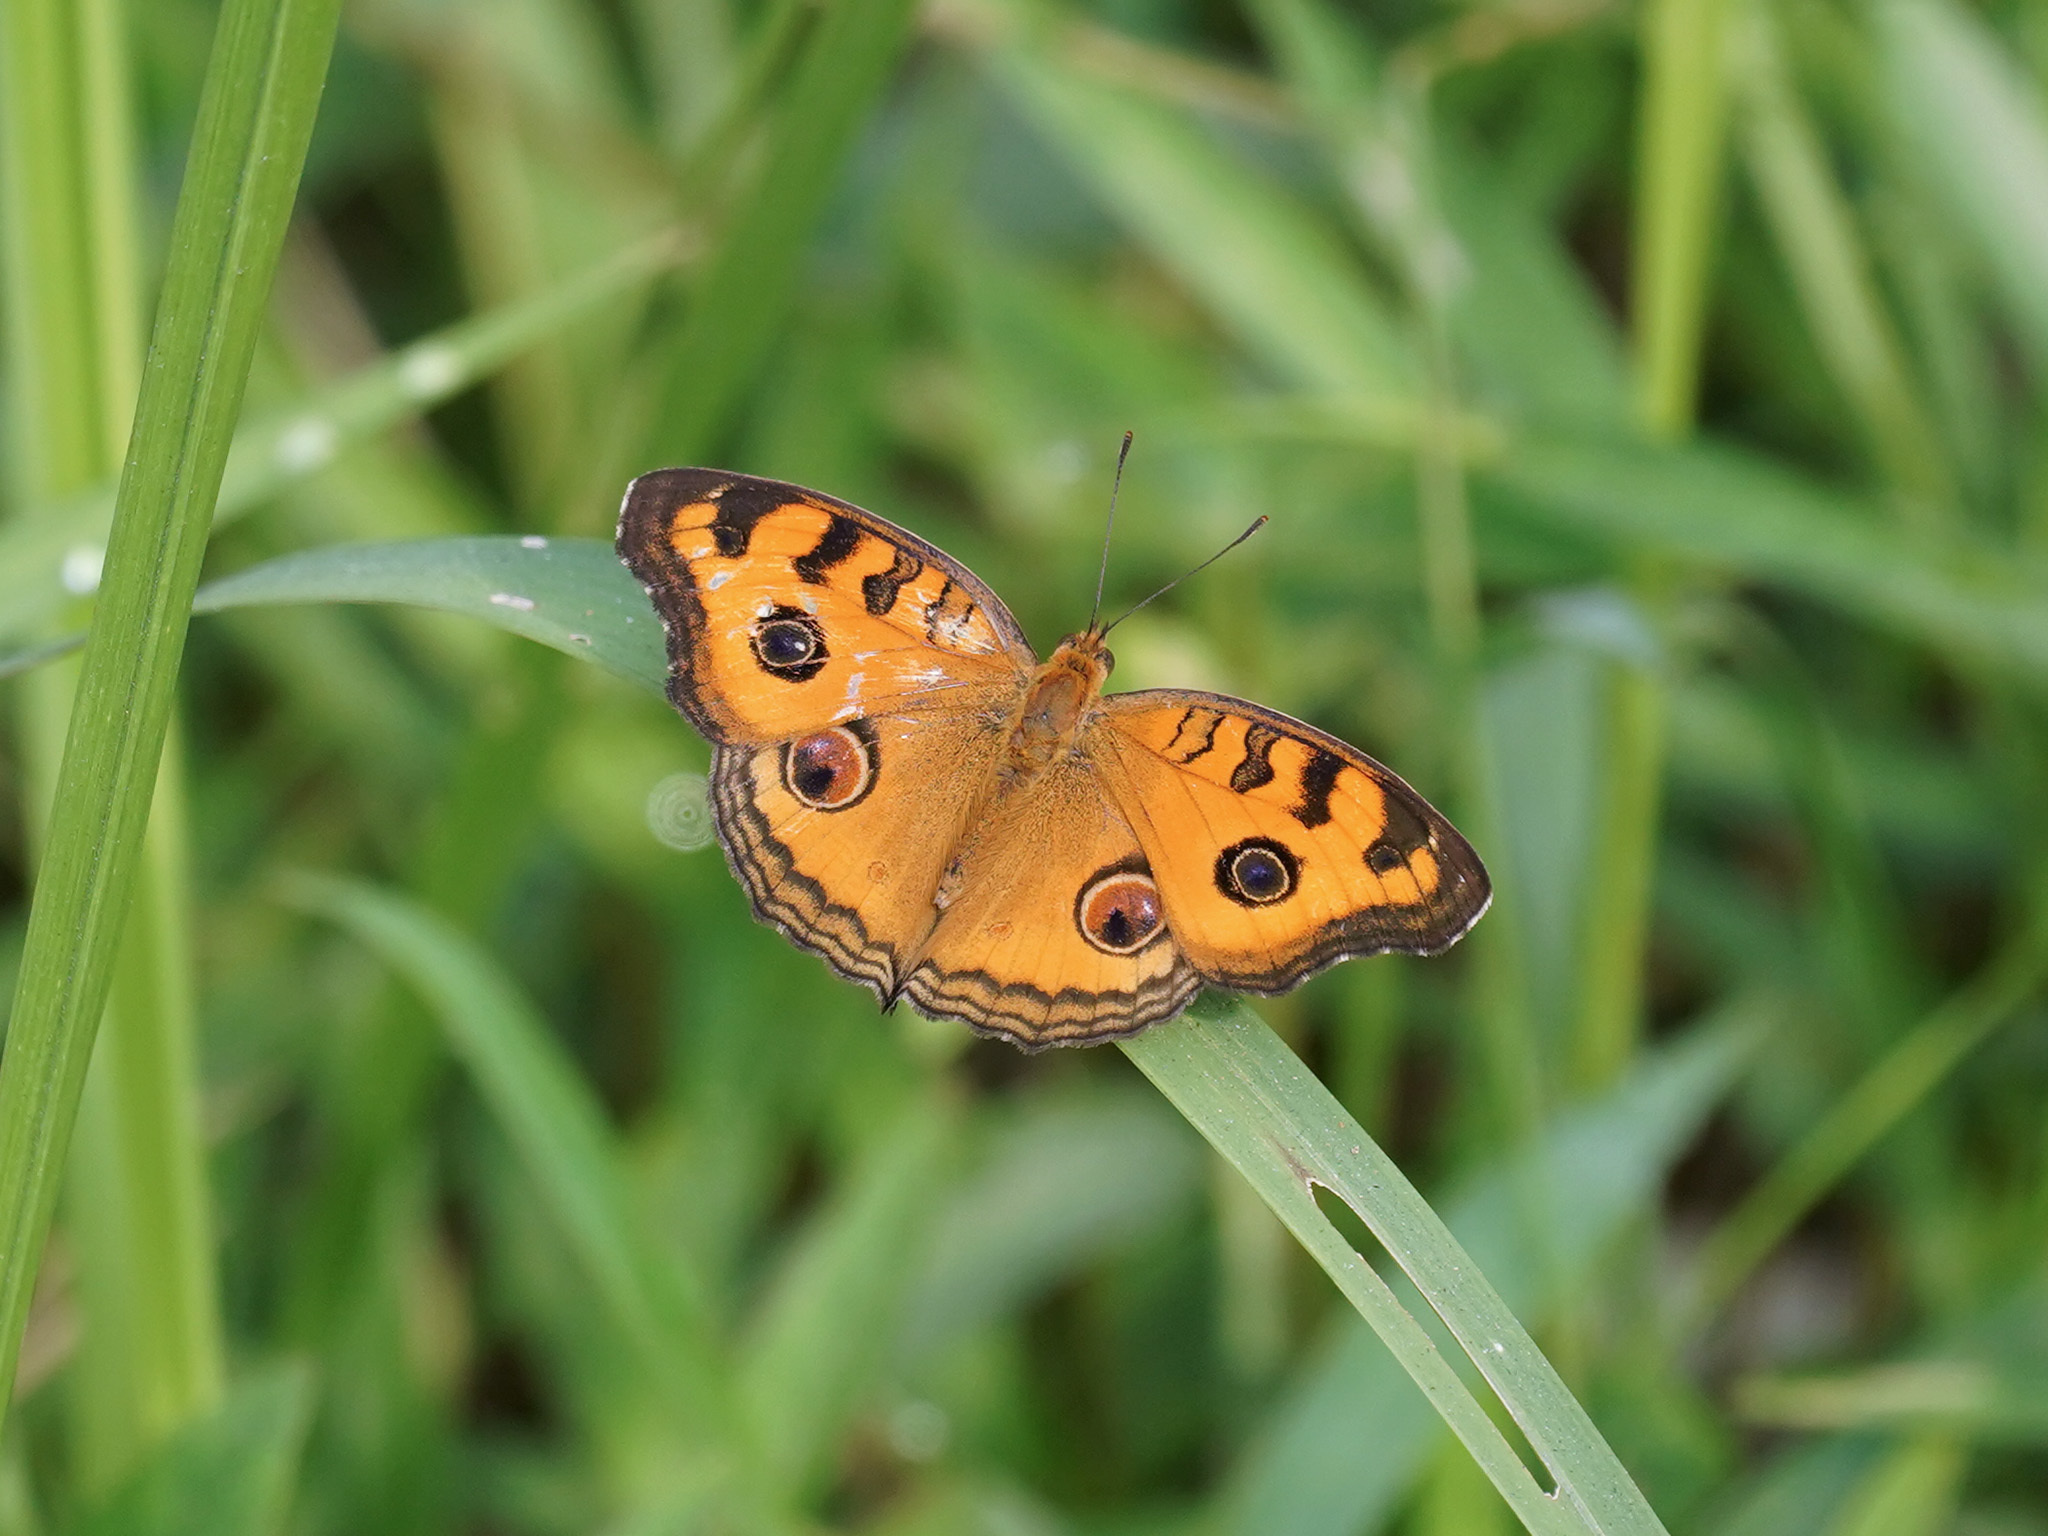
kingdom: Animalia
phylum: Arthropoda
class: Insecta
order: Lepidoptera
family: Nymphalidae
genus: Junonia
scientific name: Junonia almana
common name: Peacock pansy
